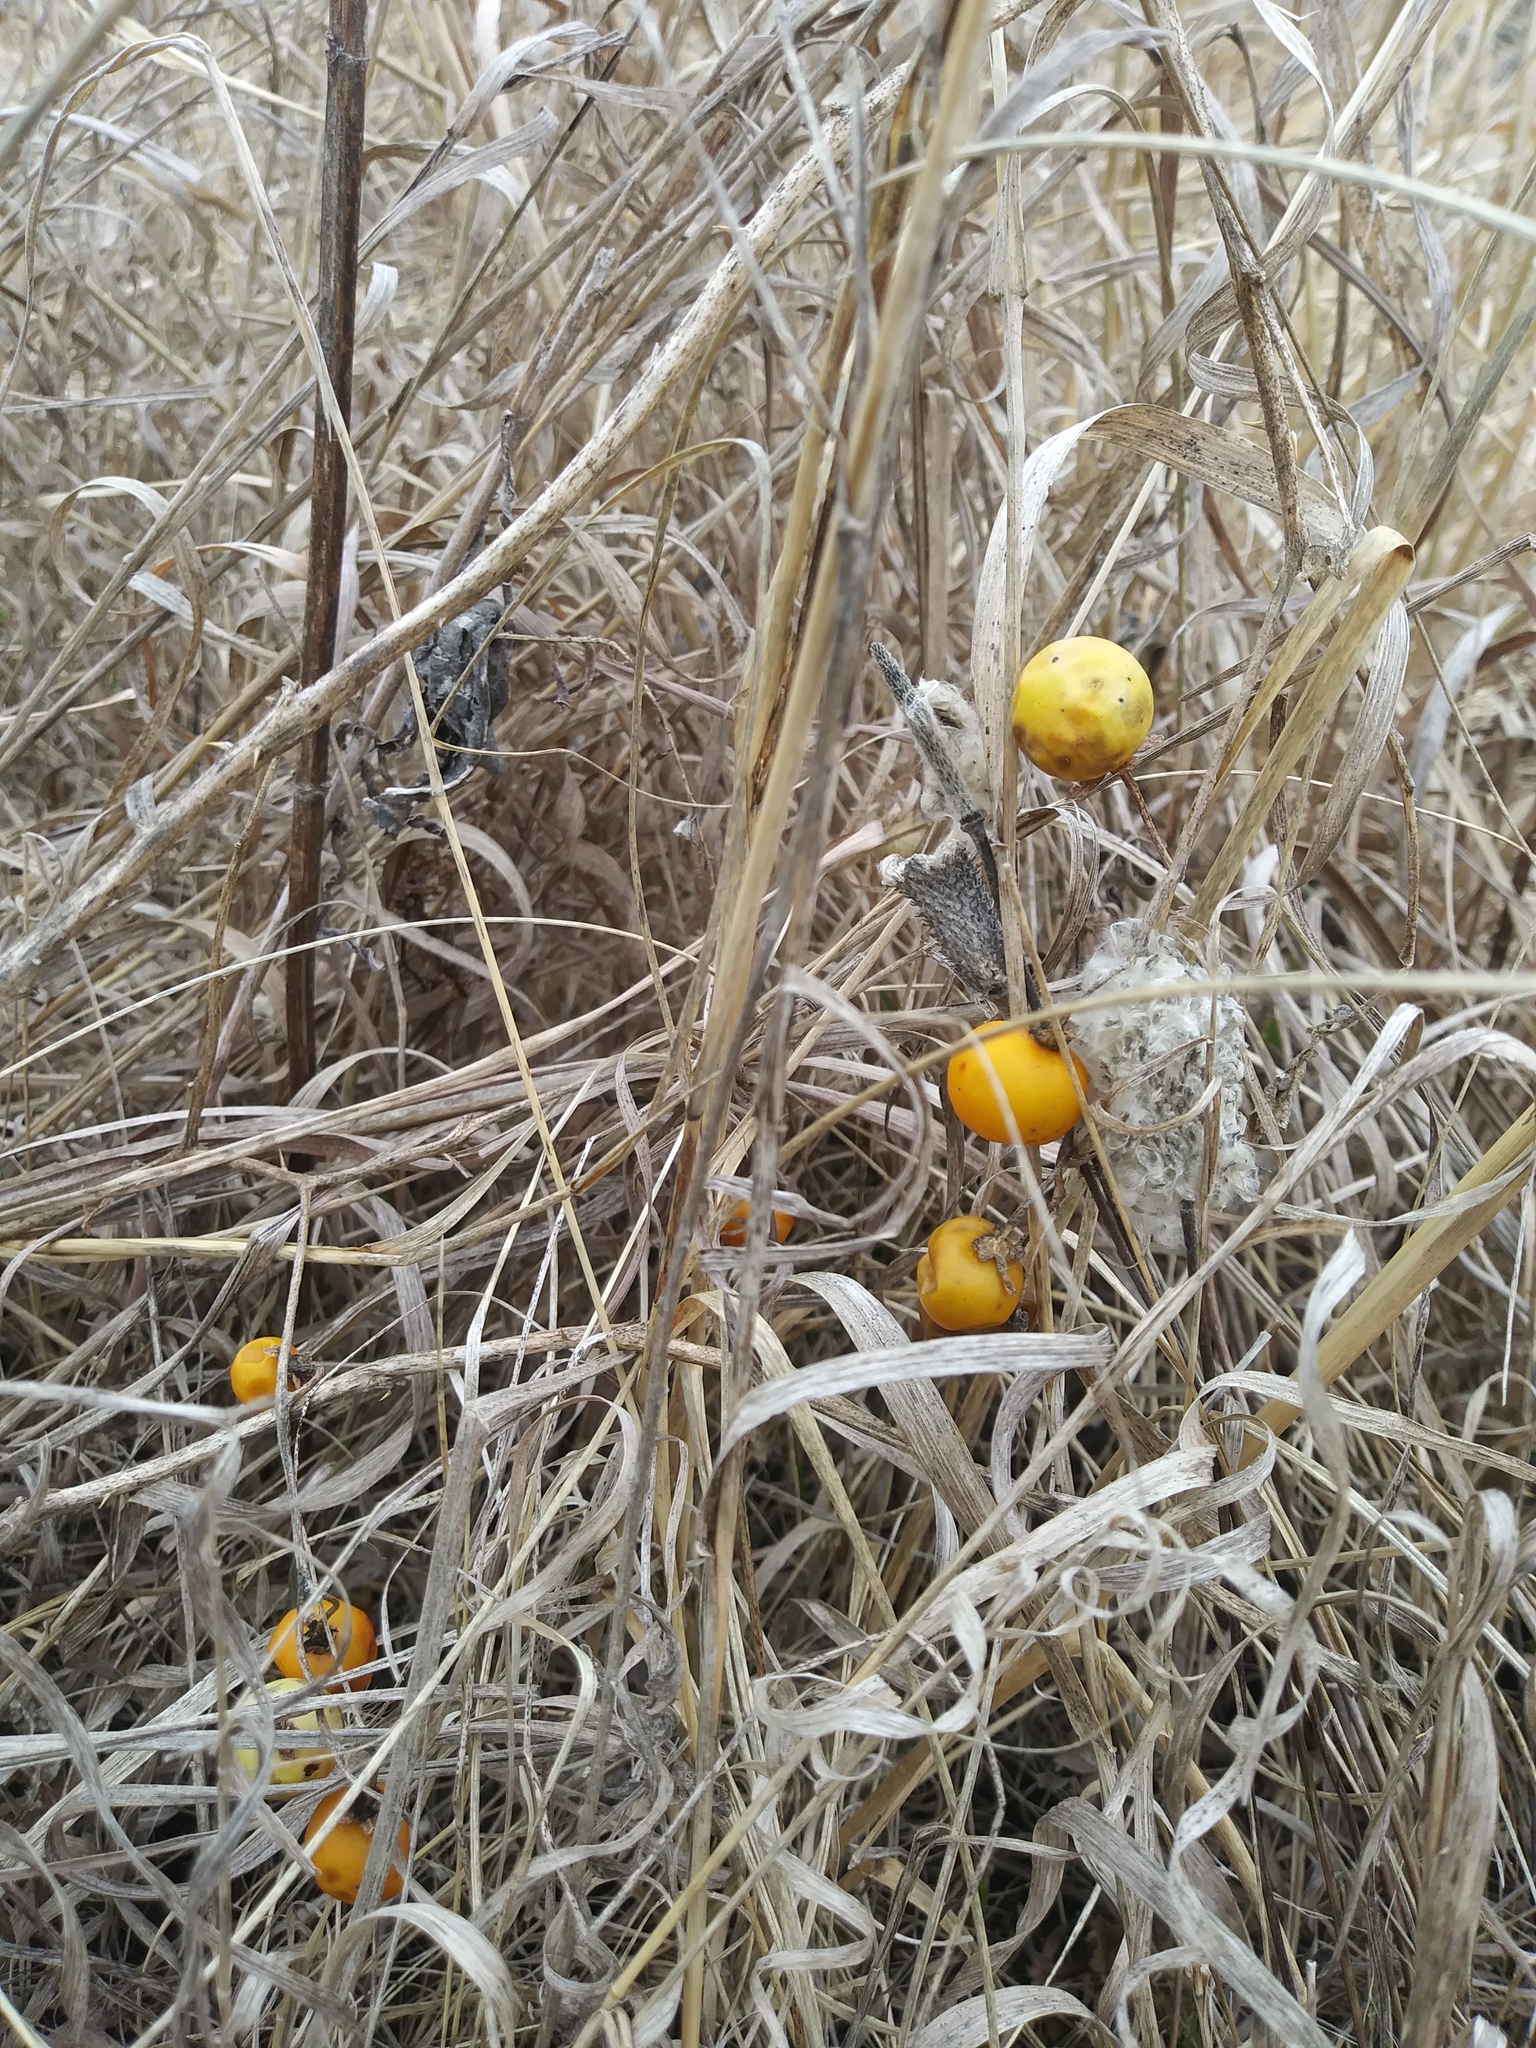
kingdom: Plantae
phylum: Tracheophyta
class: Magnoliopsida
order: Solanales
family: Solanaceae
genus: Solanum
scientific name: Solanum carolinense
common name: Horse-nettle
